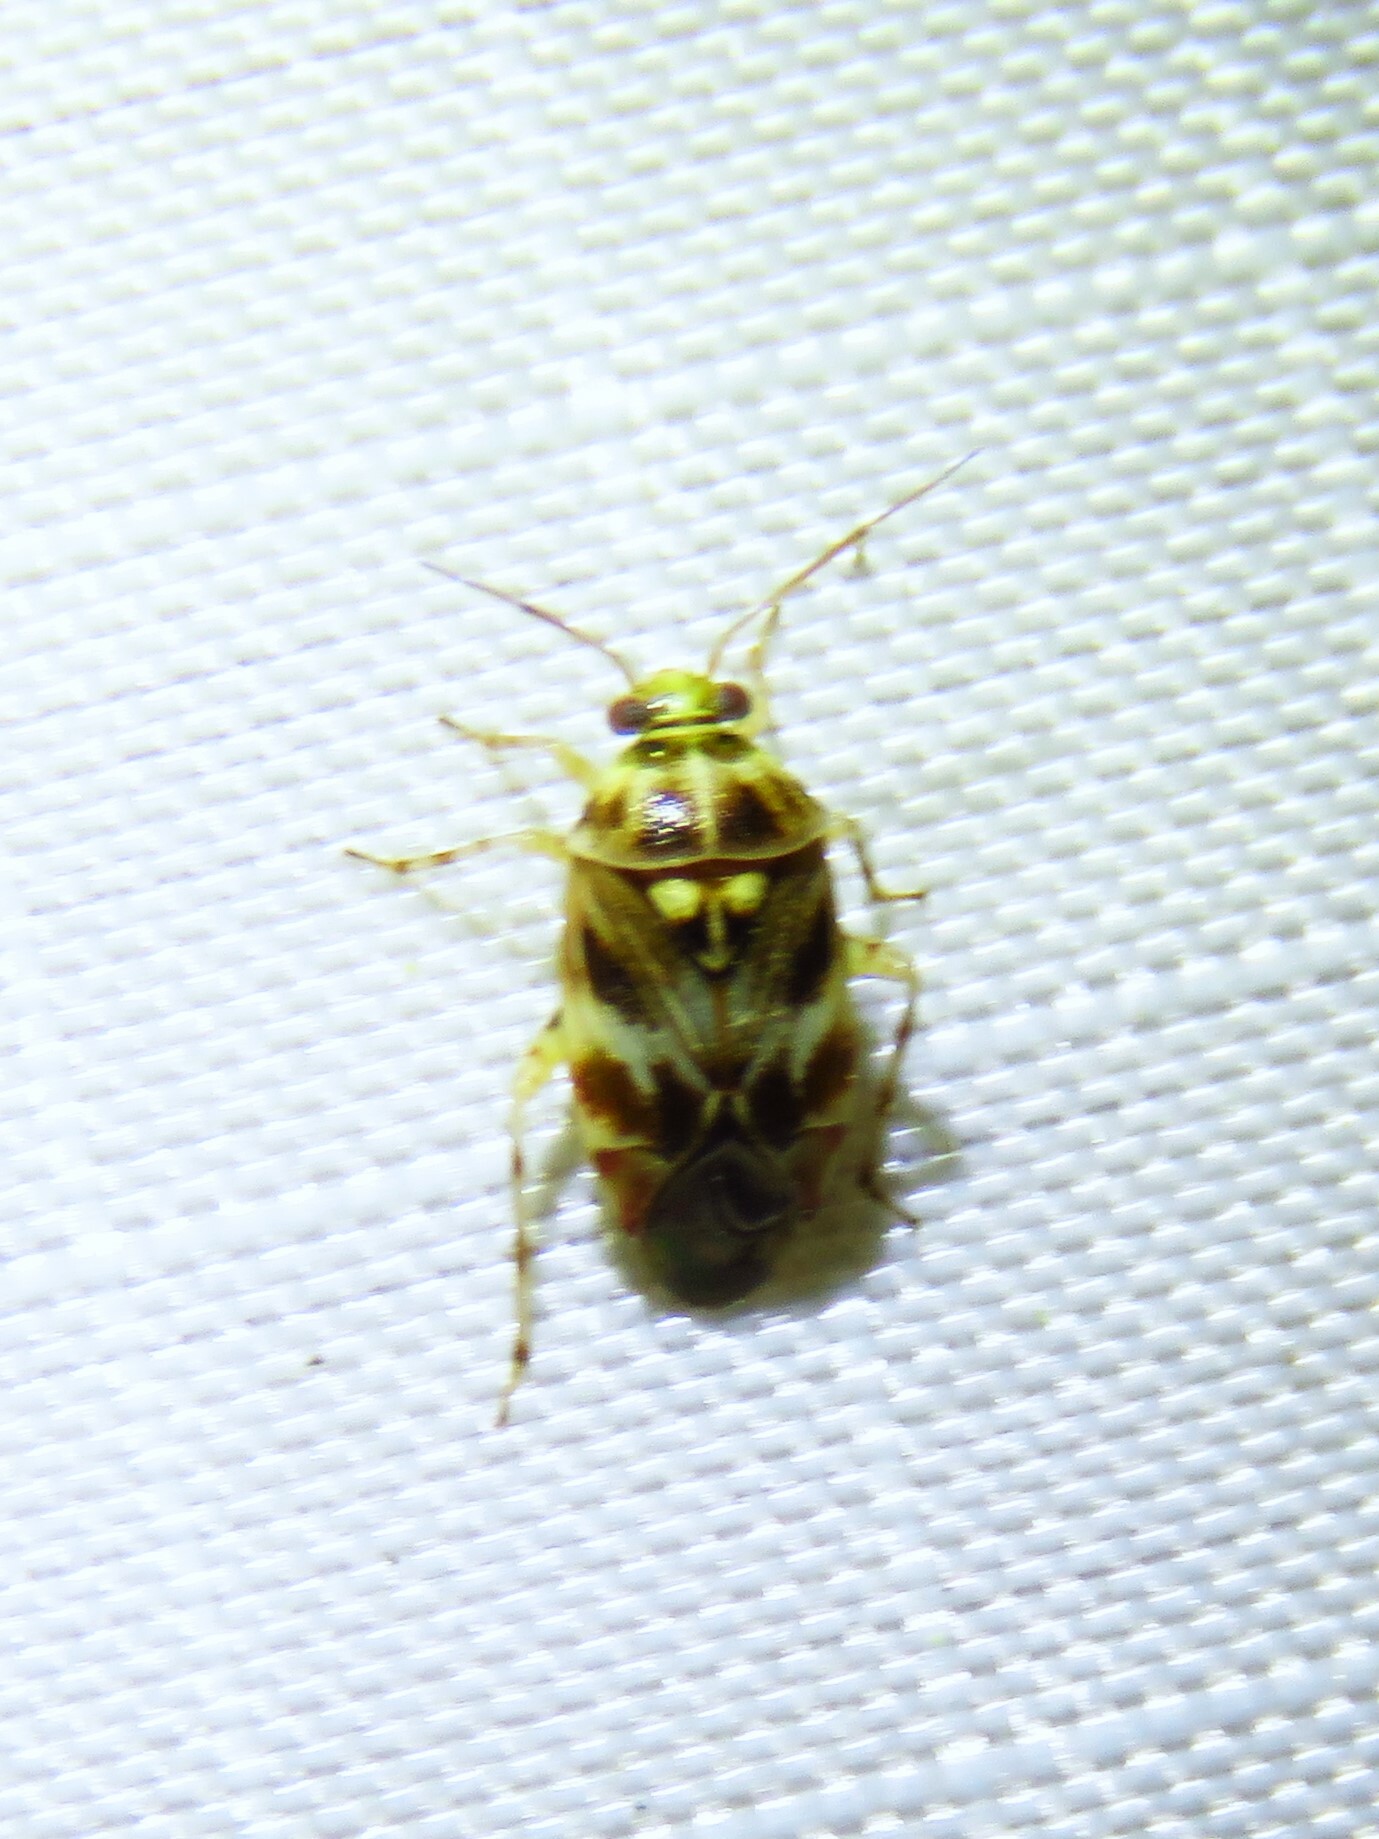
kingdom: Animalia
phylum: Arthropoda
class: Insecta
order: Hemiptera
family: Miridae
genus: Tropidosteptes
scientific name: Tropidosteptes quercicola
